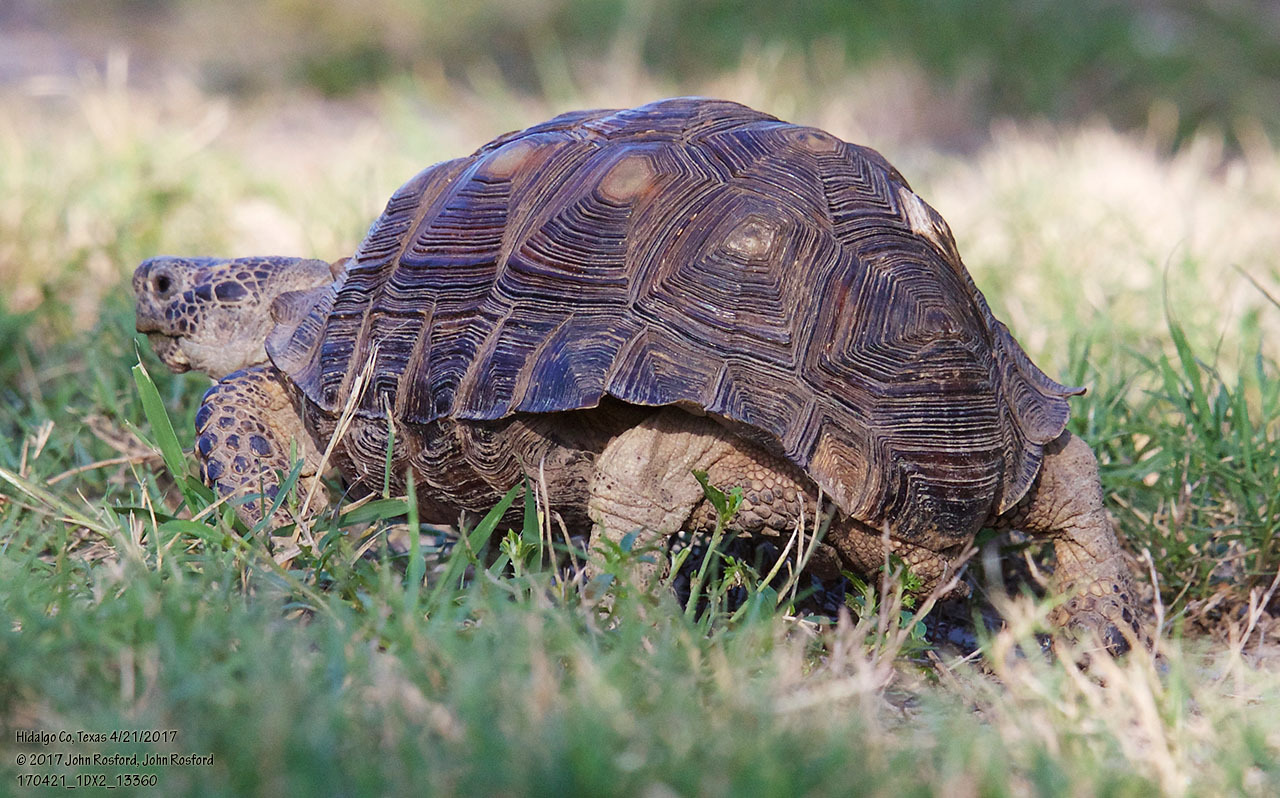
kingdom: Animalia
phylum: Chordata
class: Testudines
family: Testudinidae
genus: Gopherus
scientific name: Gopherus berlandieri
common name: Texas (gopher )tortoise
